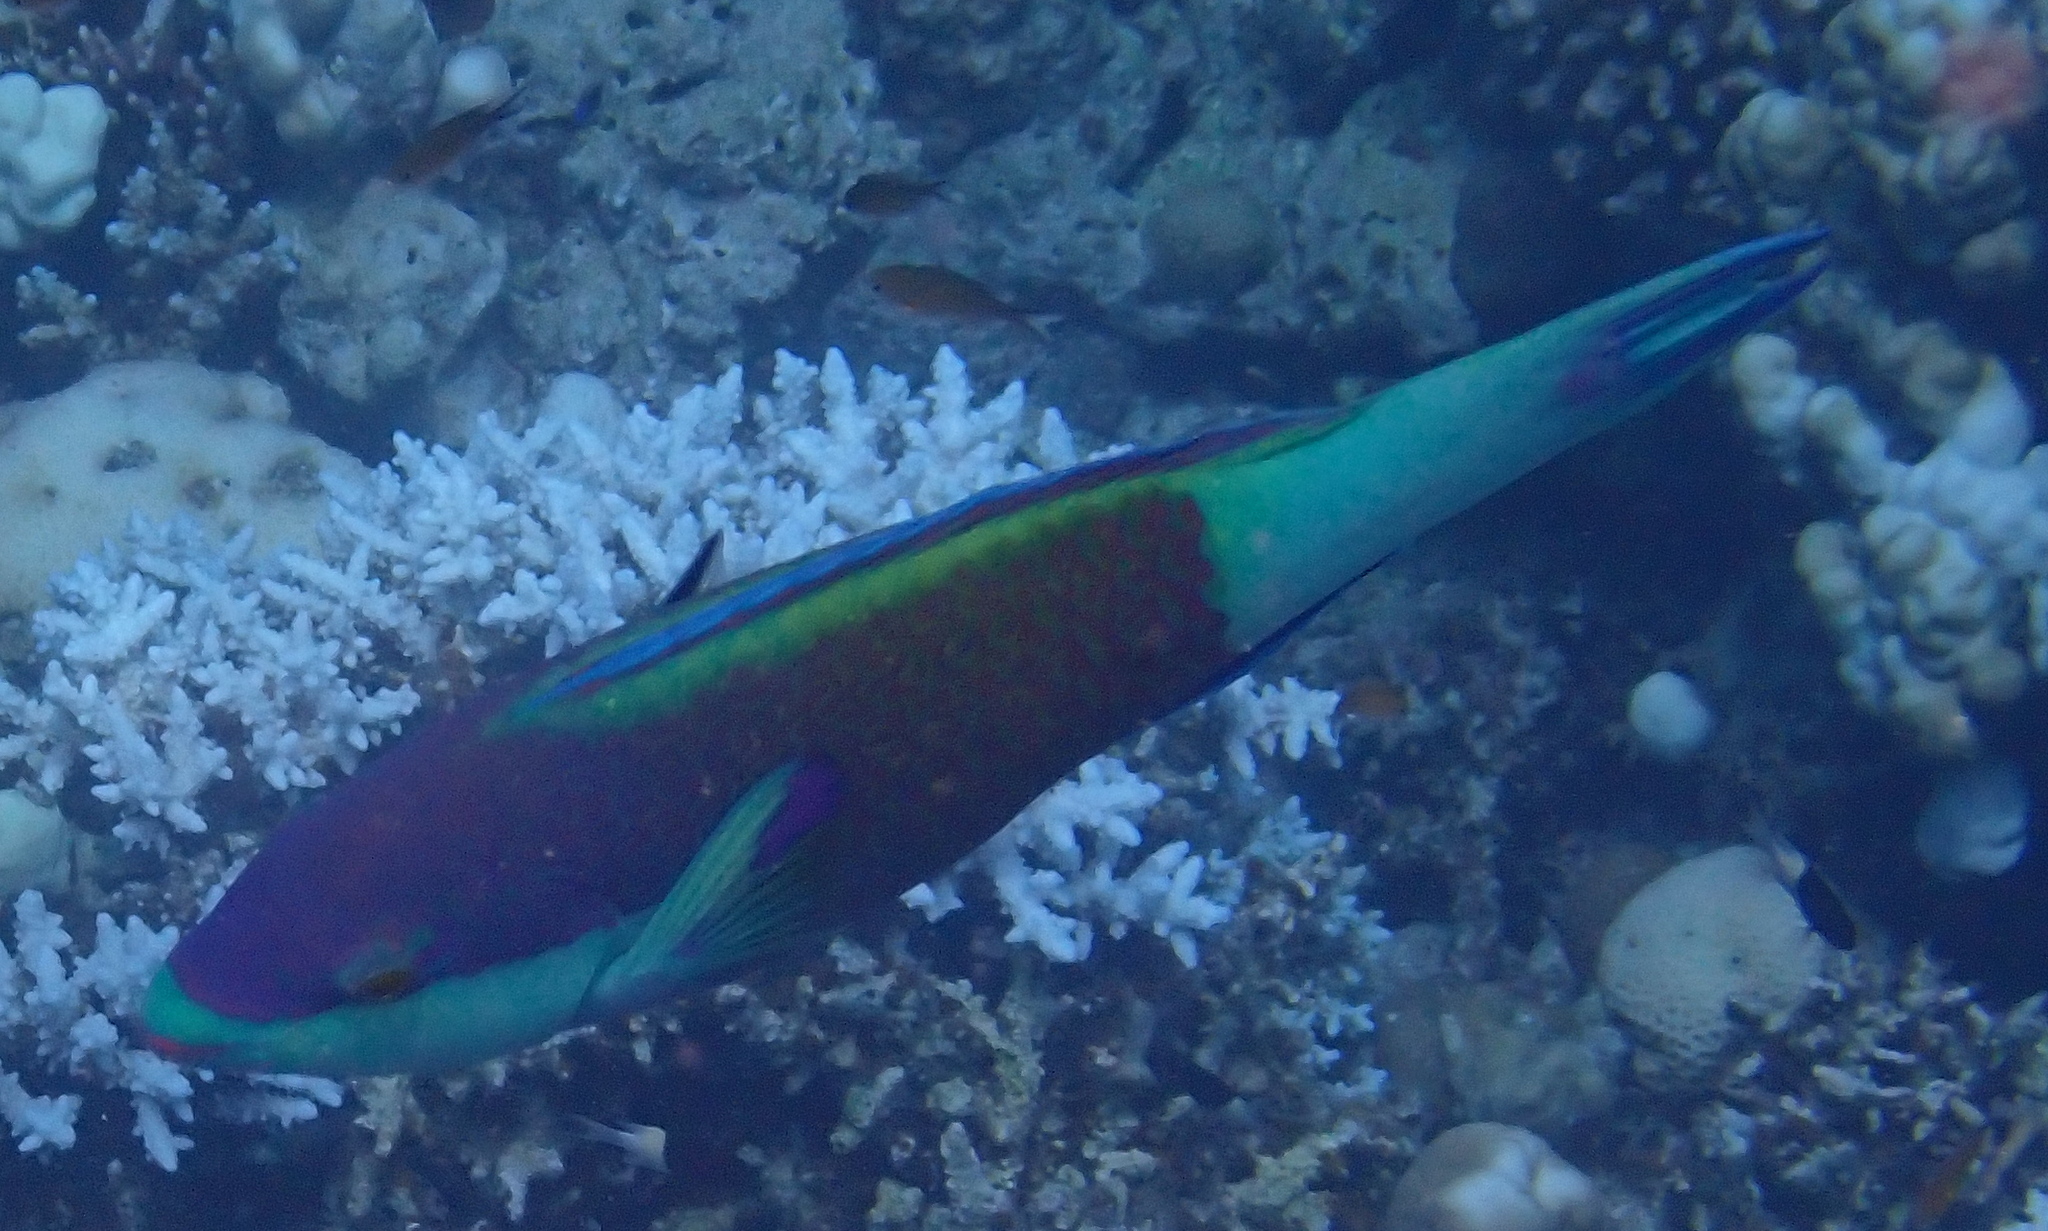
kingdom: Animalia
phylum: Chordata
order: Perciformes
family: Scaridae
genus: Scarus
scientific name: Scarus frenatus
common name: Bridled parrotfish
